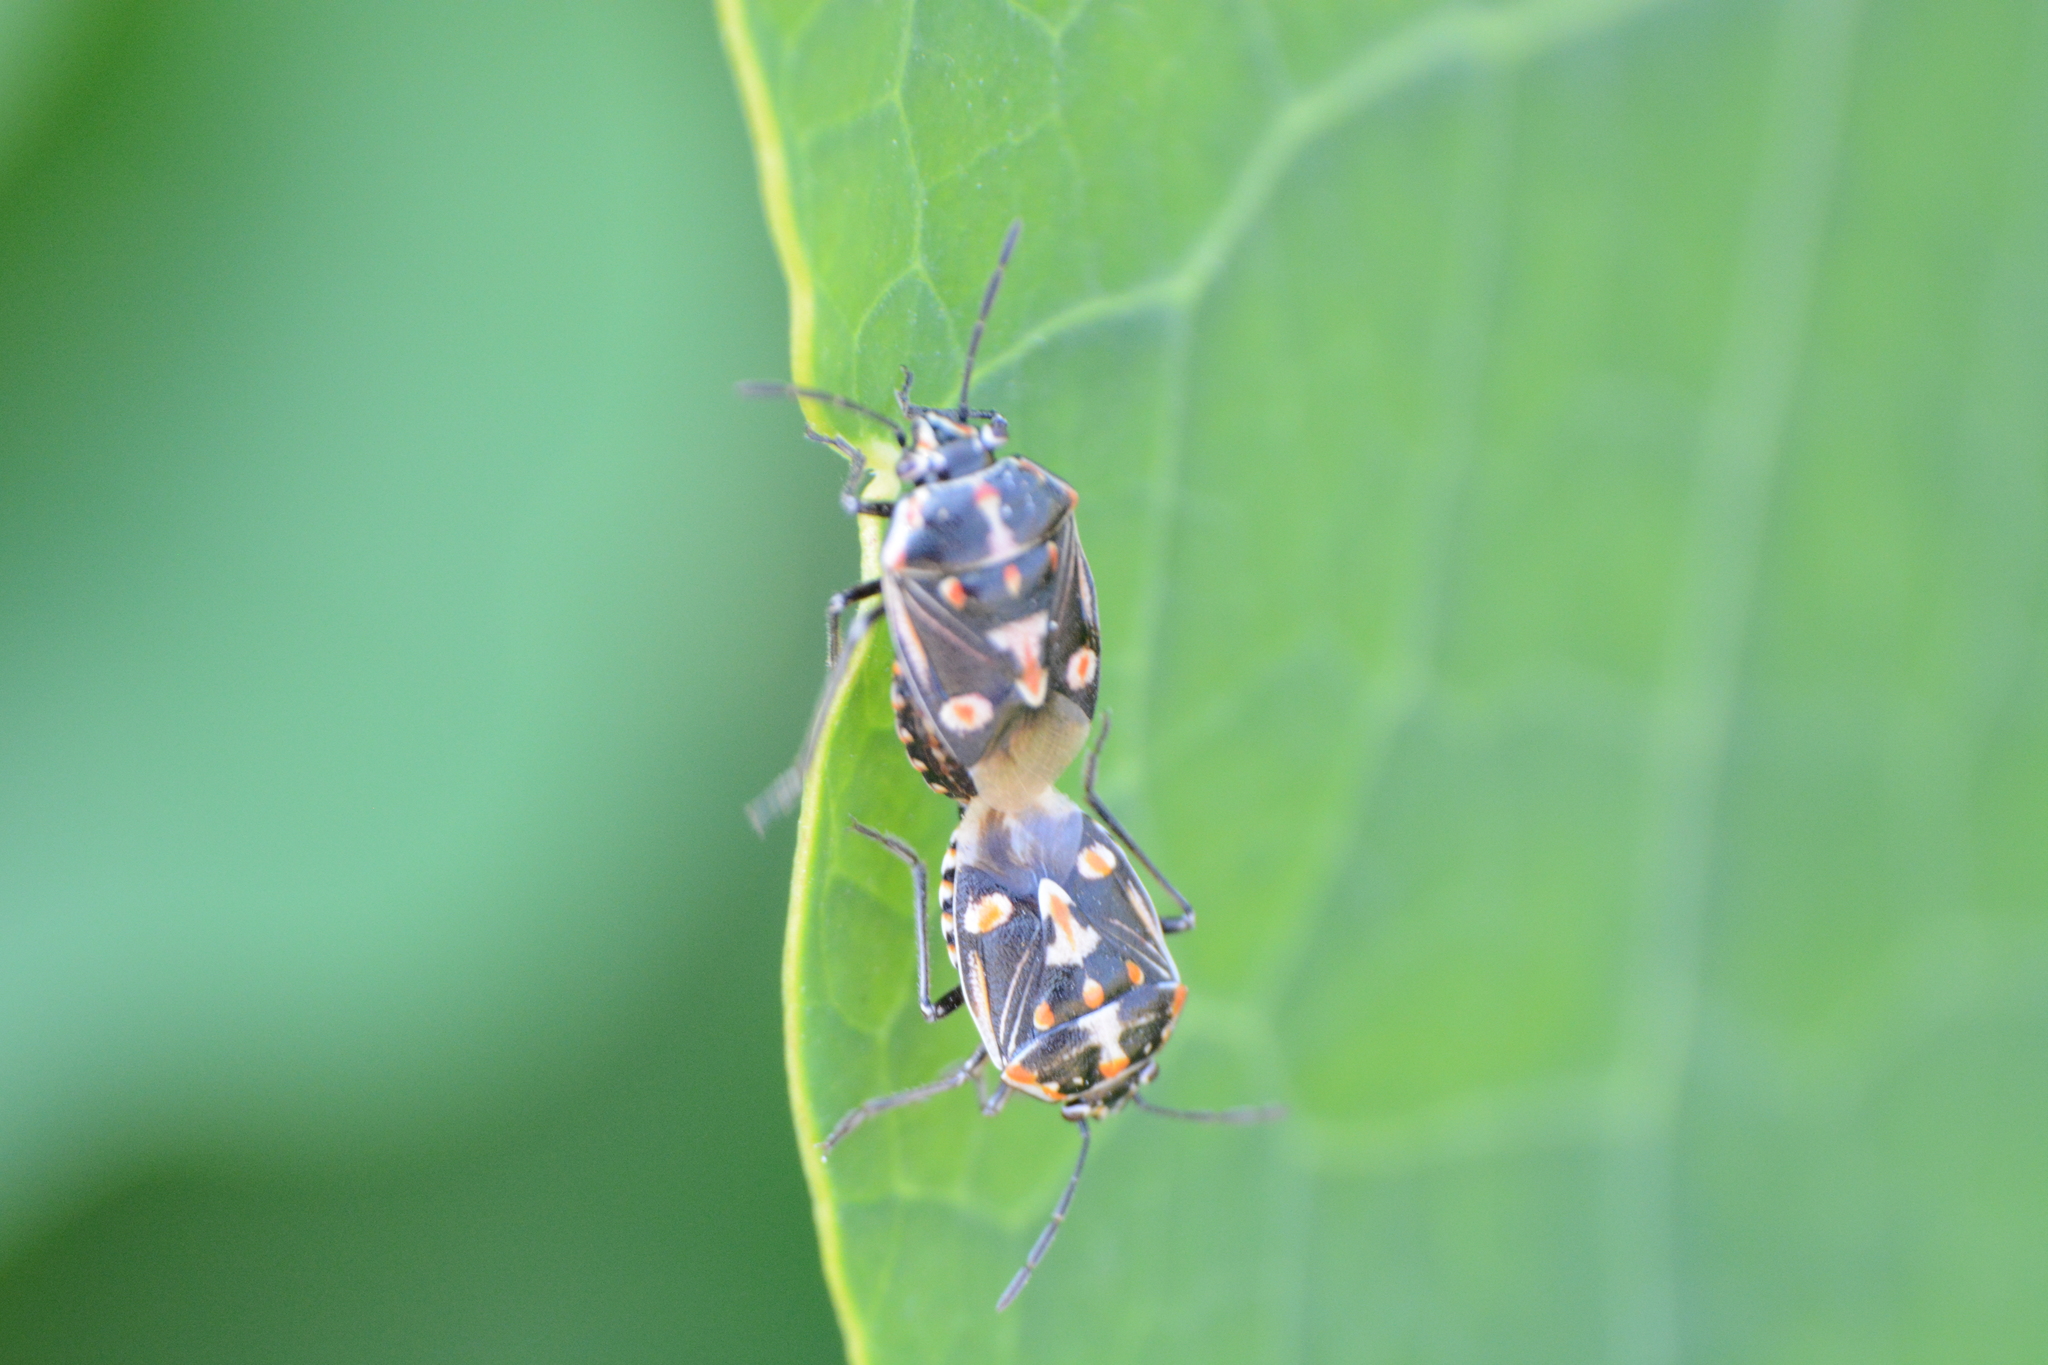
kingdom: Animalia
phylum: Arthropoda
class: Insecta
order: Hemiptera
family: Pentatomidae
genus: Bagrada
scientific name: Bagrada hilaris
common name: Bagrada bug
